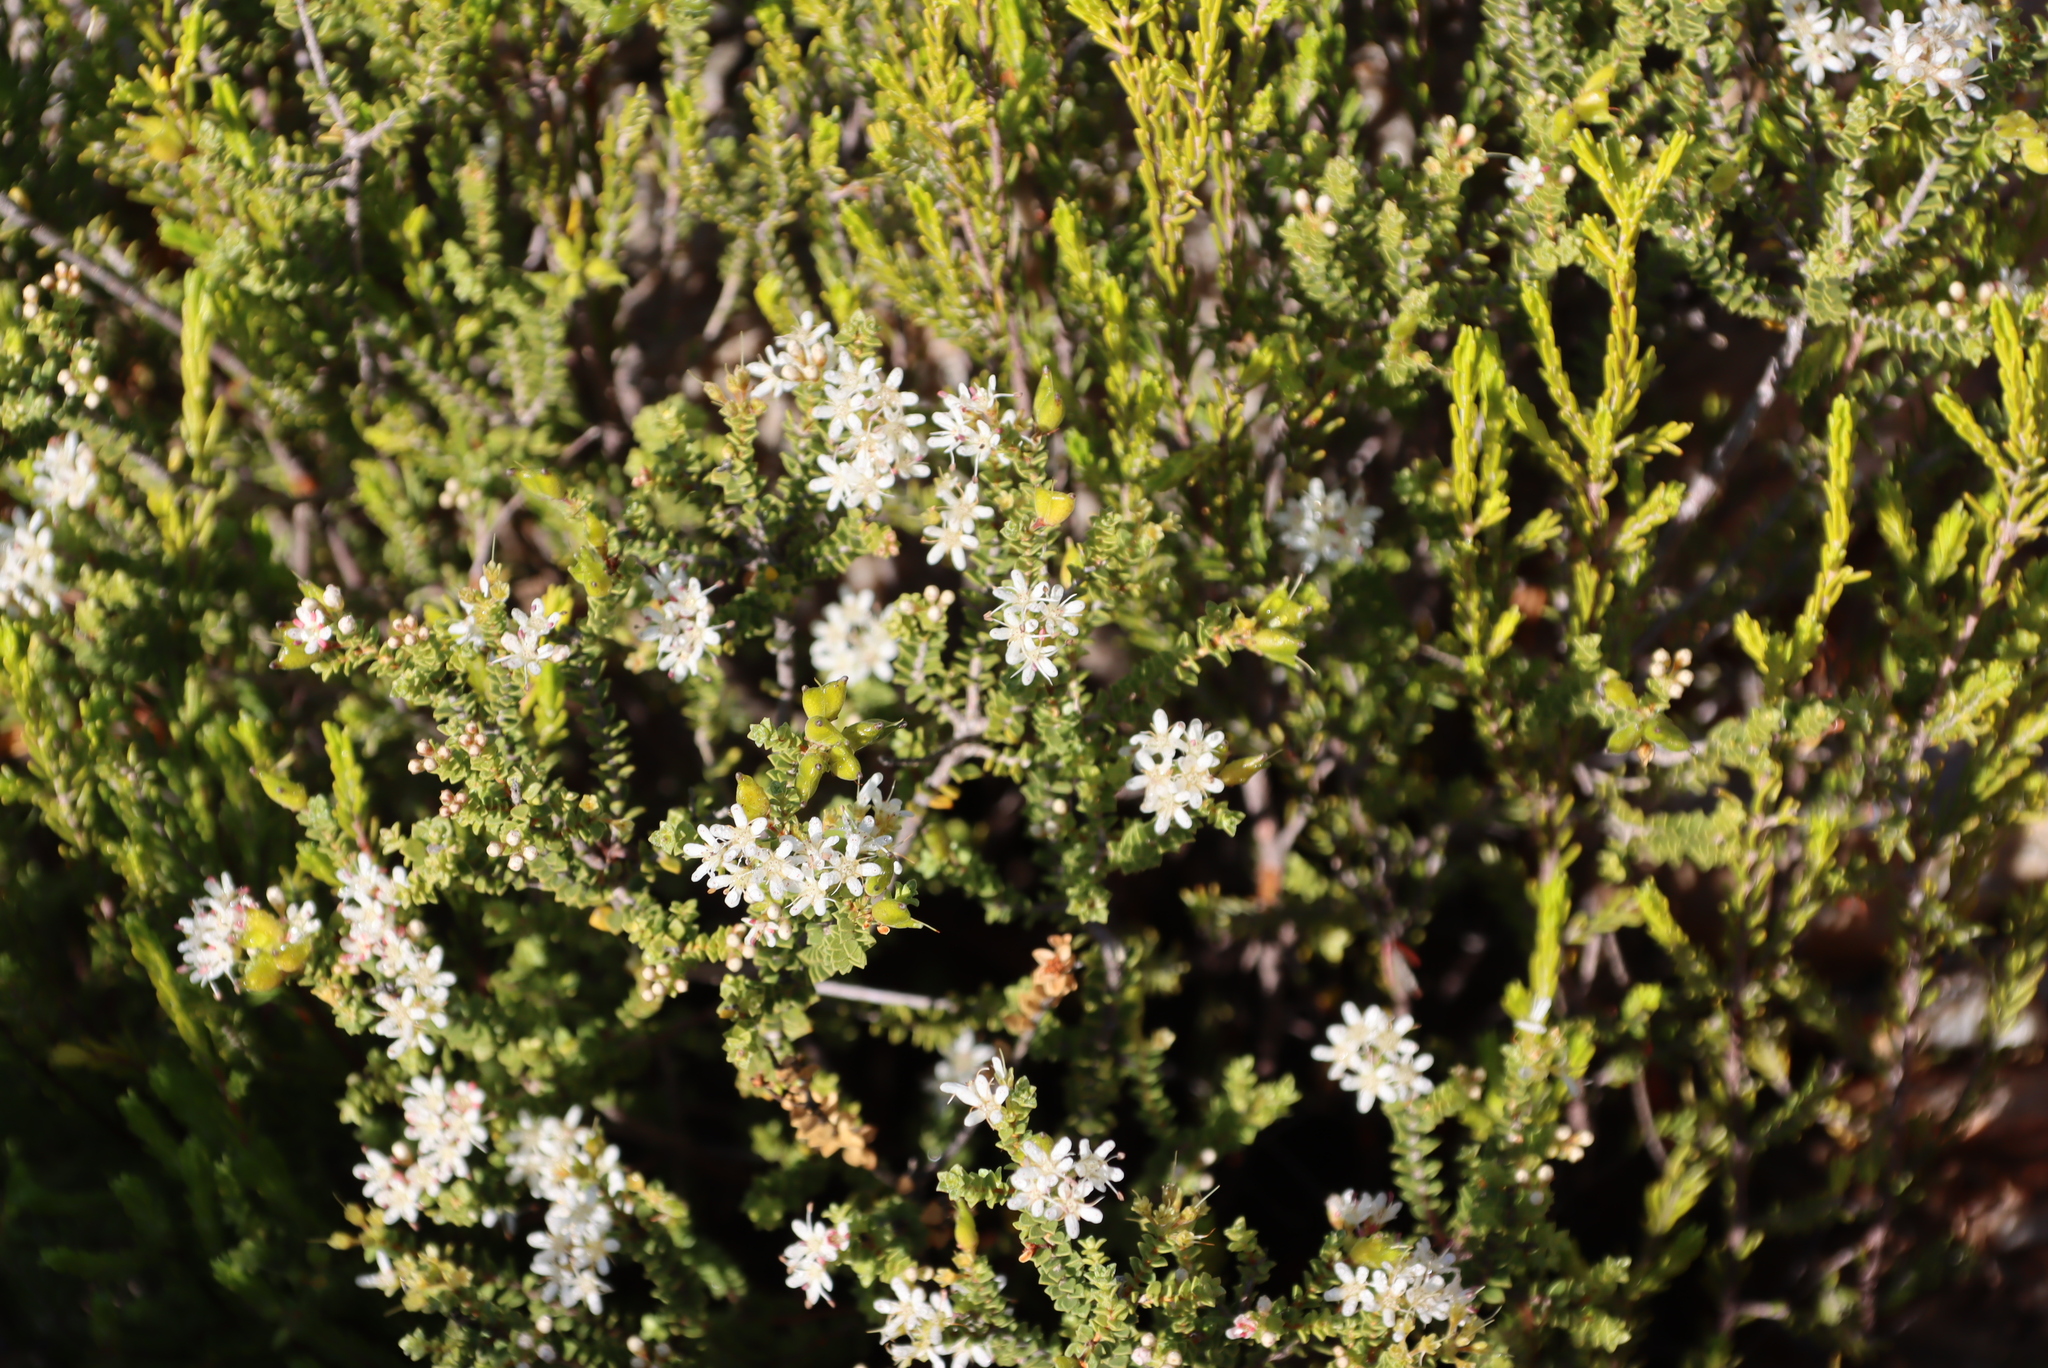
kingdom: Plantae
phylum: Tracheophyta
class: Magnoliopsida
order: Sapindales
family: Rutaceae
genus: Agathosma
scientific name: Agathosma recurvifolia
